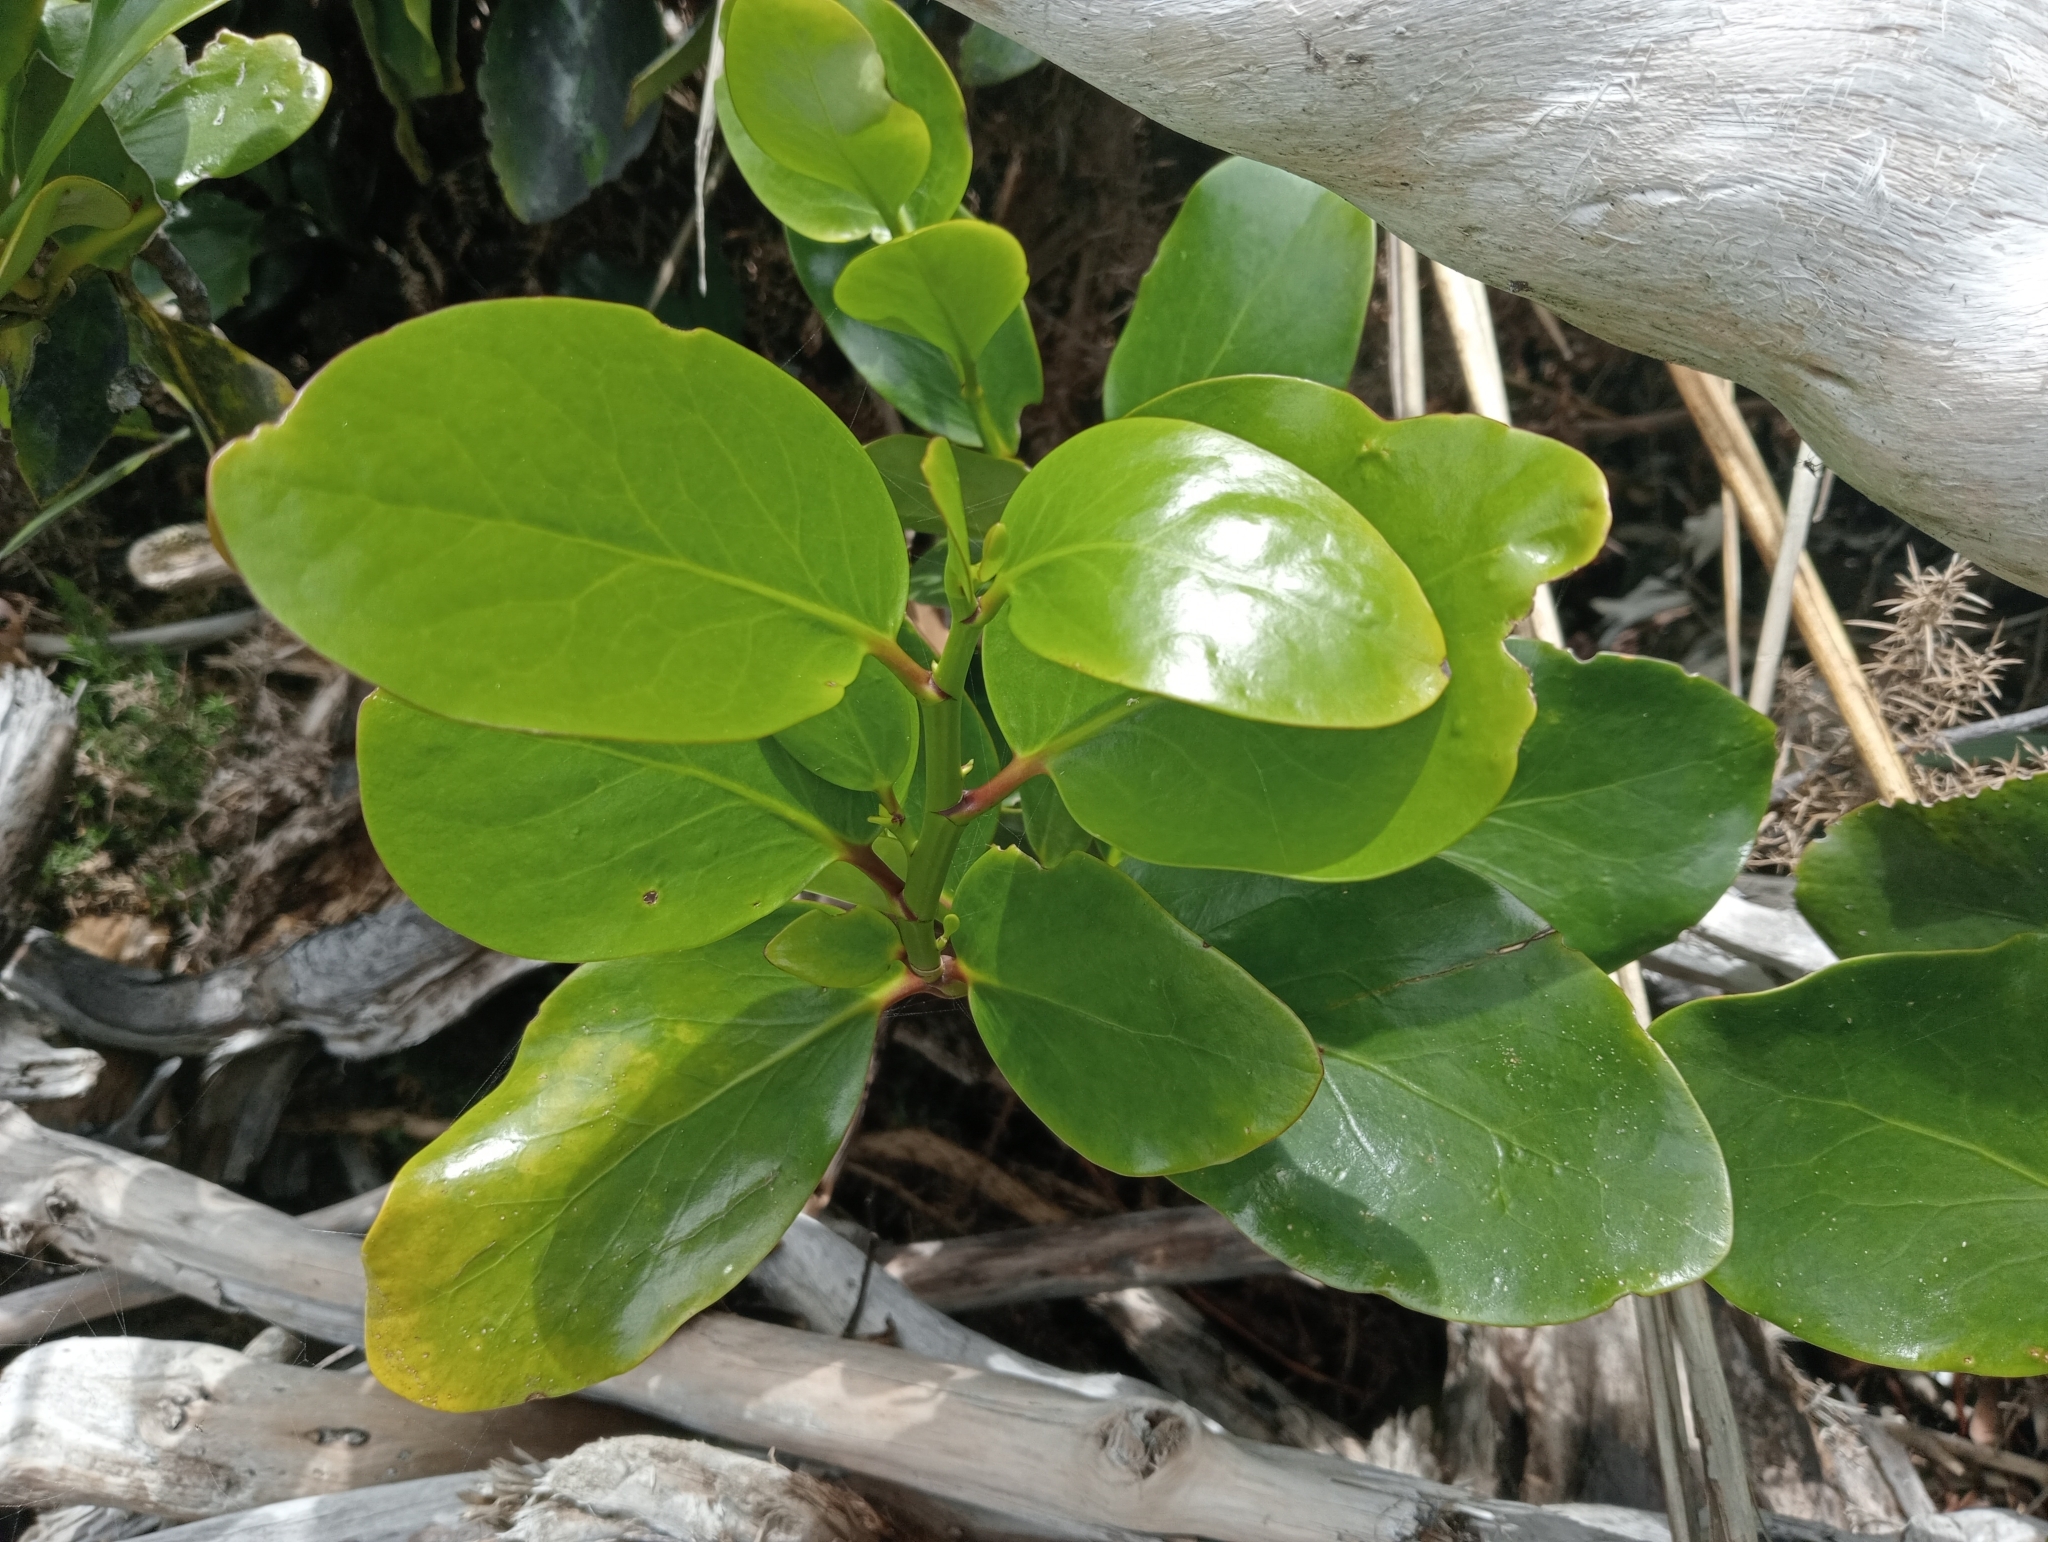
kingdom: Plantae
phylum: Tracheophyta
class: Magnoliopsida
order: Apiales
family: Griseliniaceae
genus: Griselinia
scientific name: Griselinia lucida
